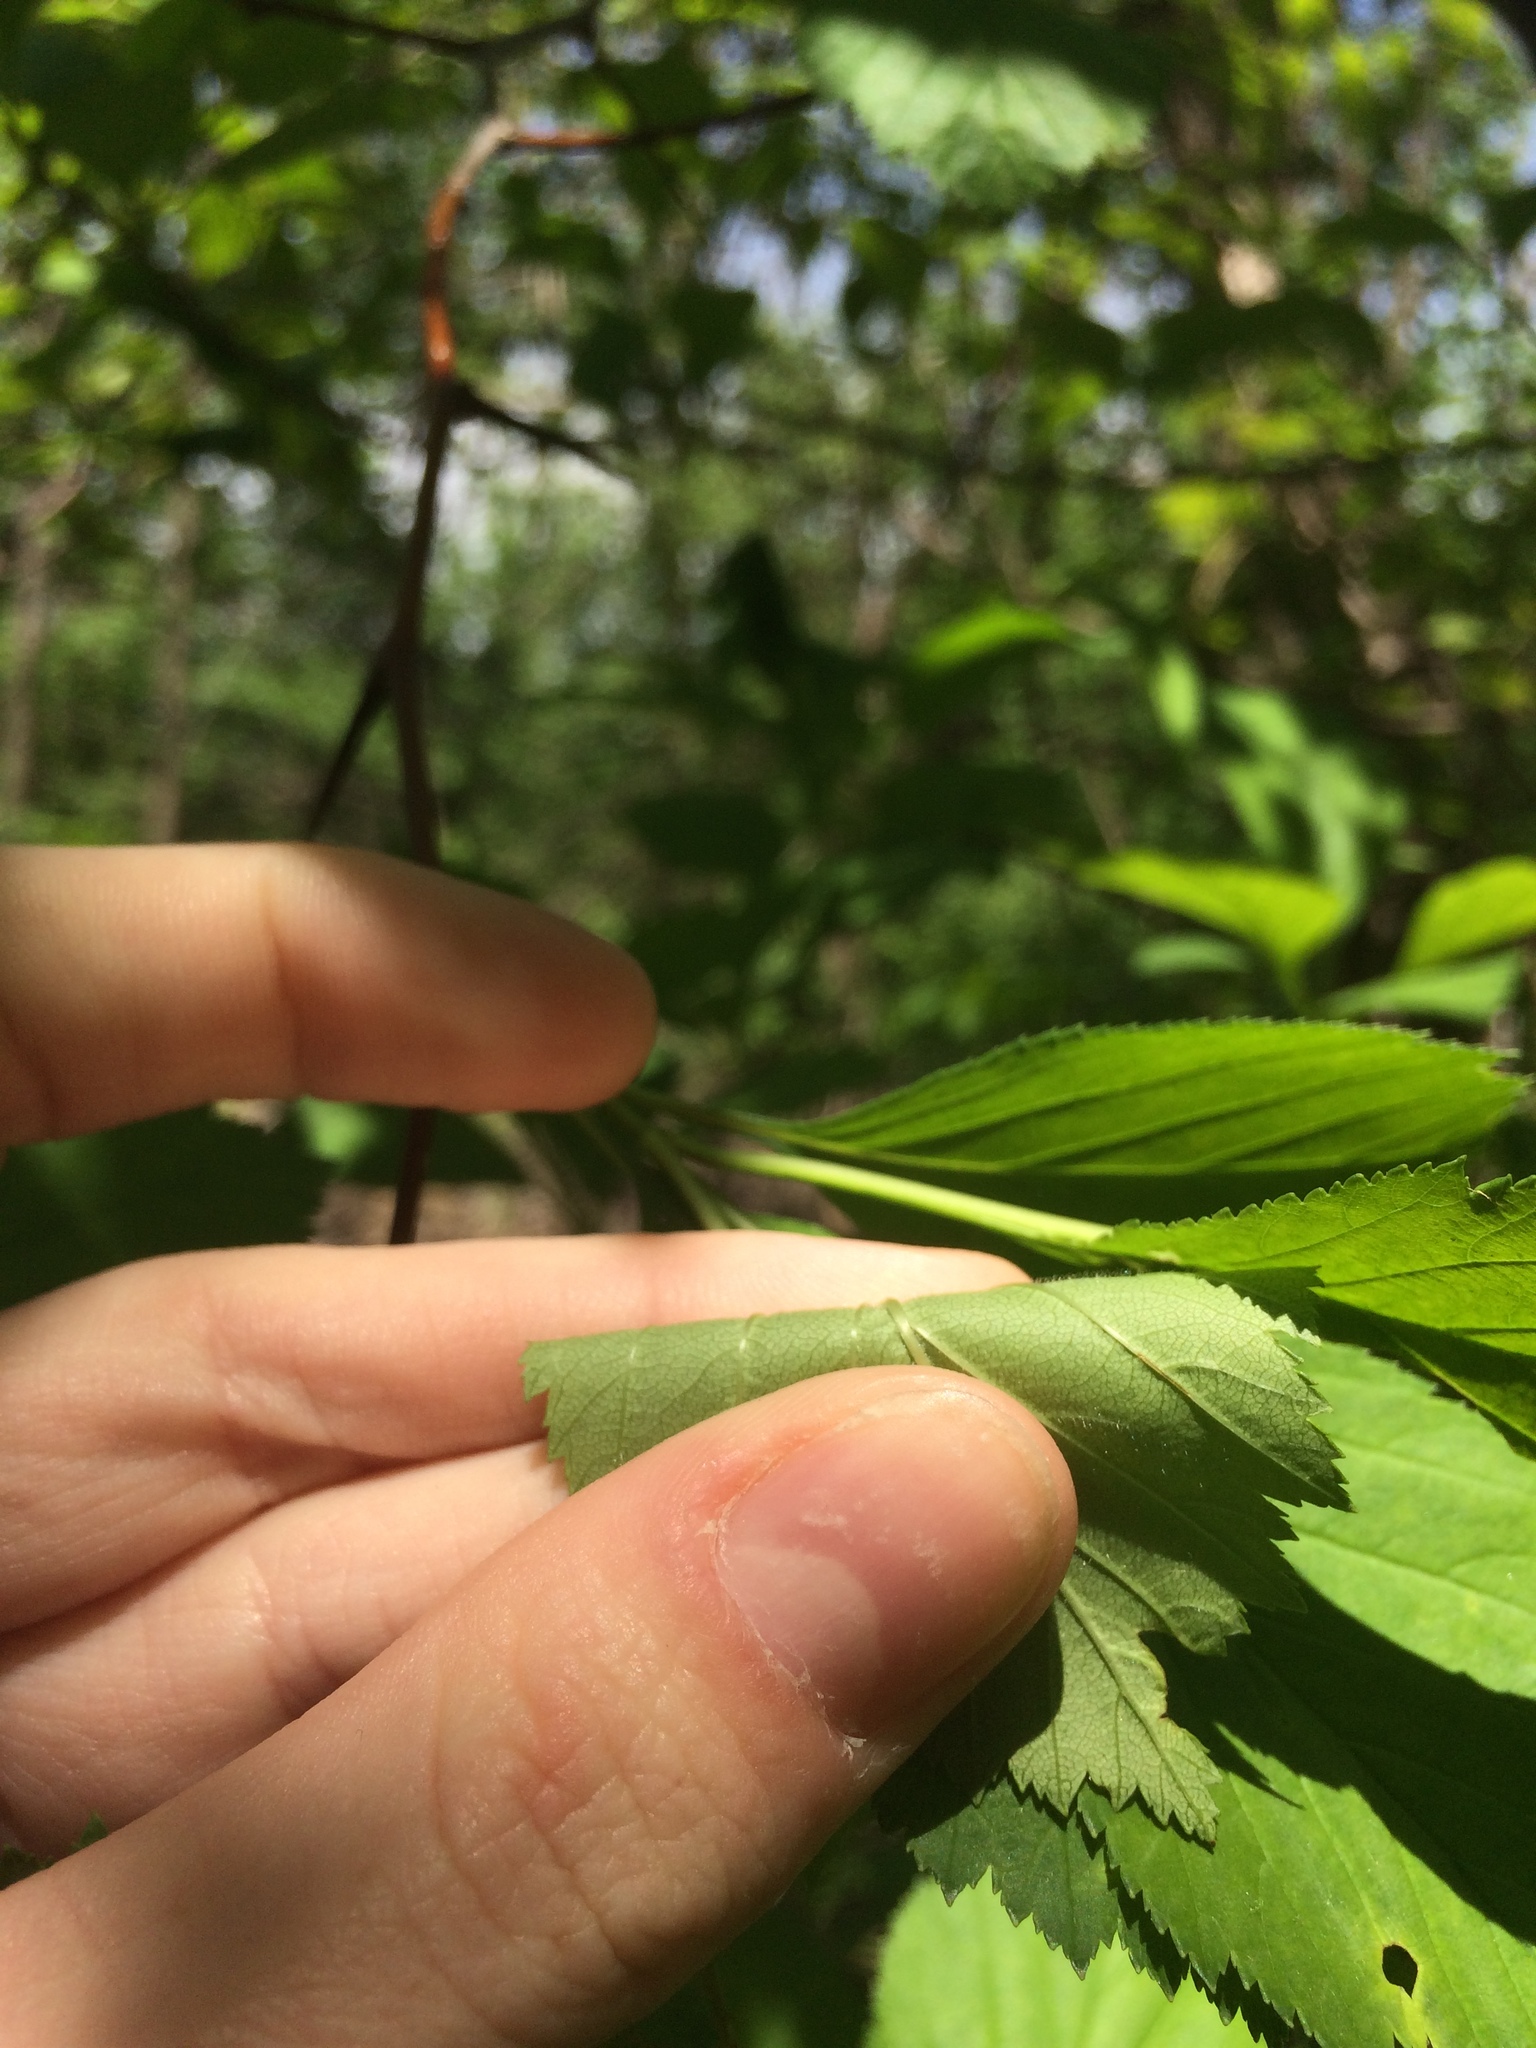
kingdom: Plantae
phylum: Tracheophyta
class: Magnoliopsida
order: Rosales
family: Rosaceae
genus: Crataegus
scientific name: Crataegus macracantha
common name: Large-thorn hawthorn
